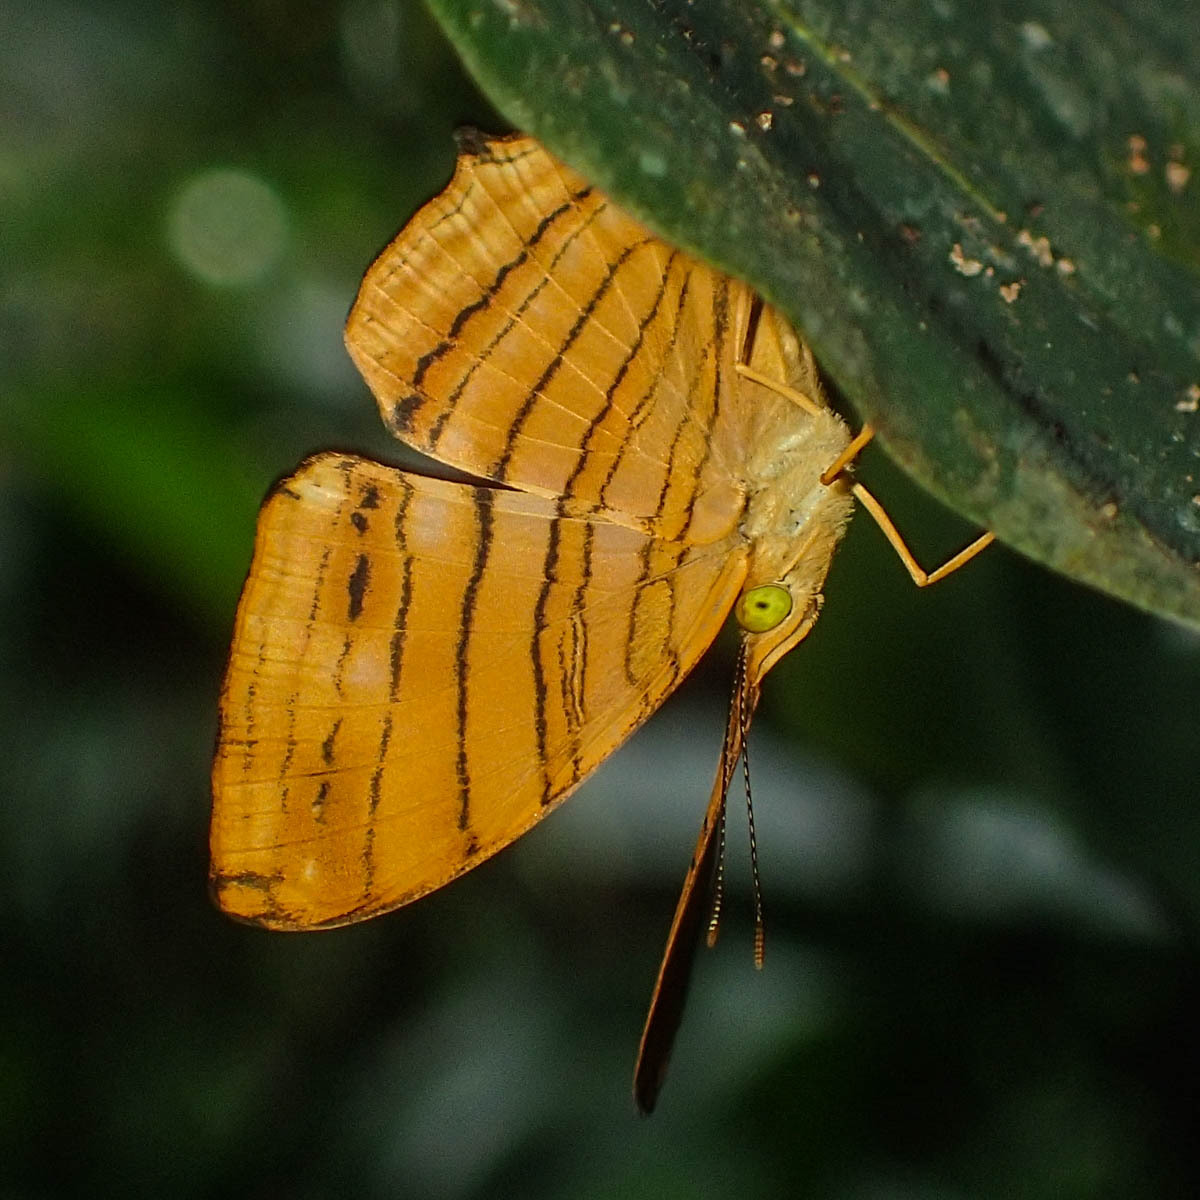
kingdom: Animalia
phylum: Arthropoda
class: Insecta
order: Lepidoptera
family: Nymphalidae
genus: Chersonesia
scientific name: Chersonesia risa
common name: Common maplet
